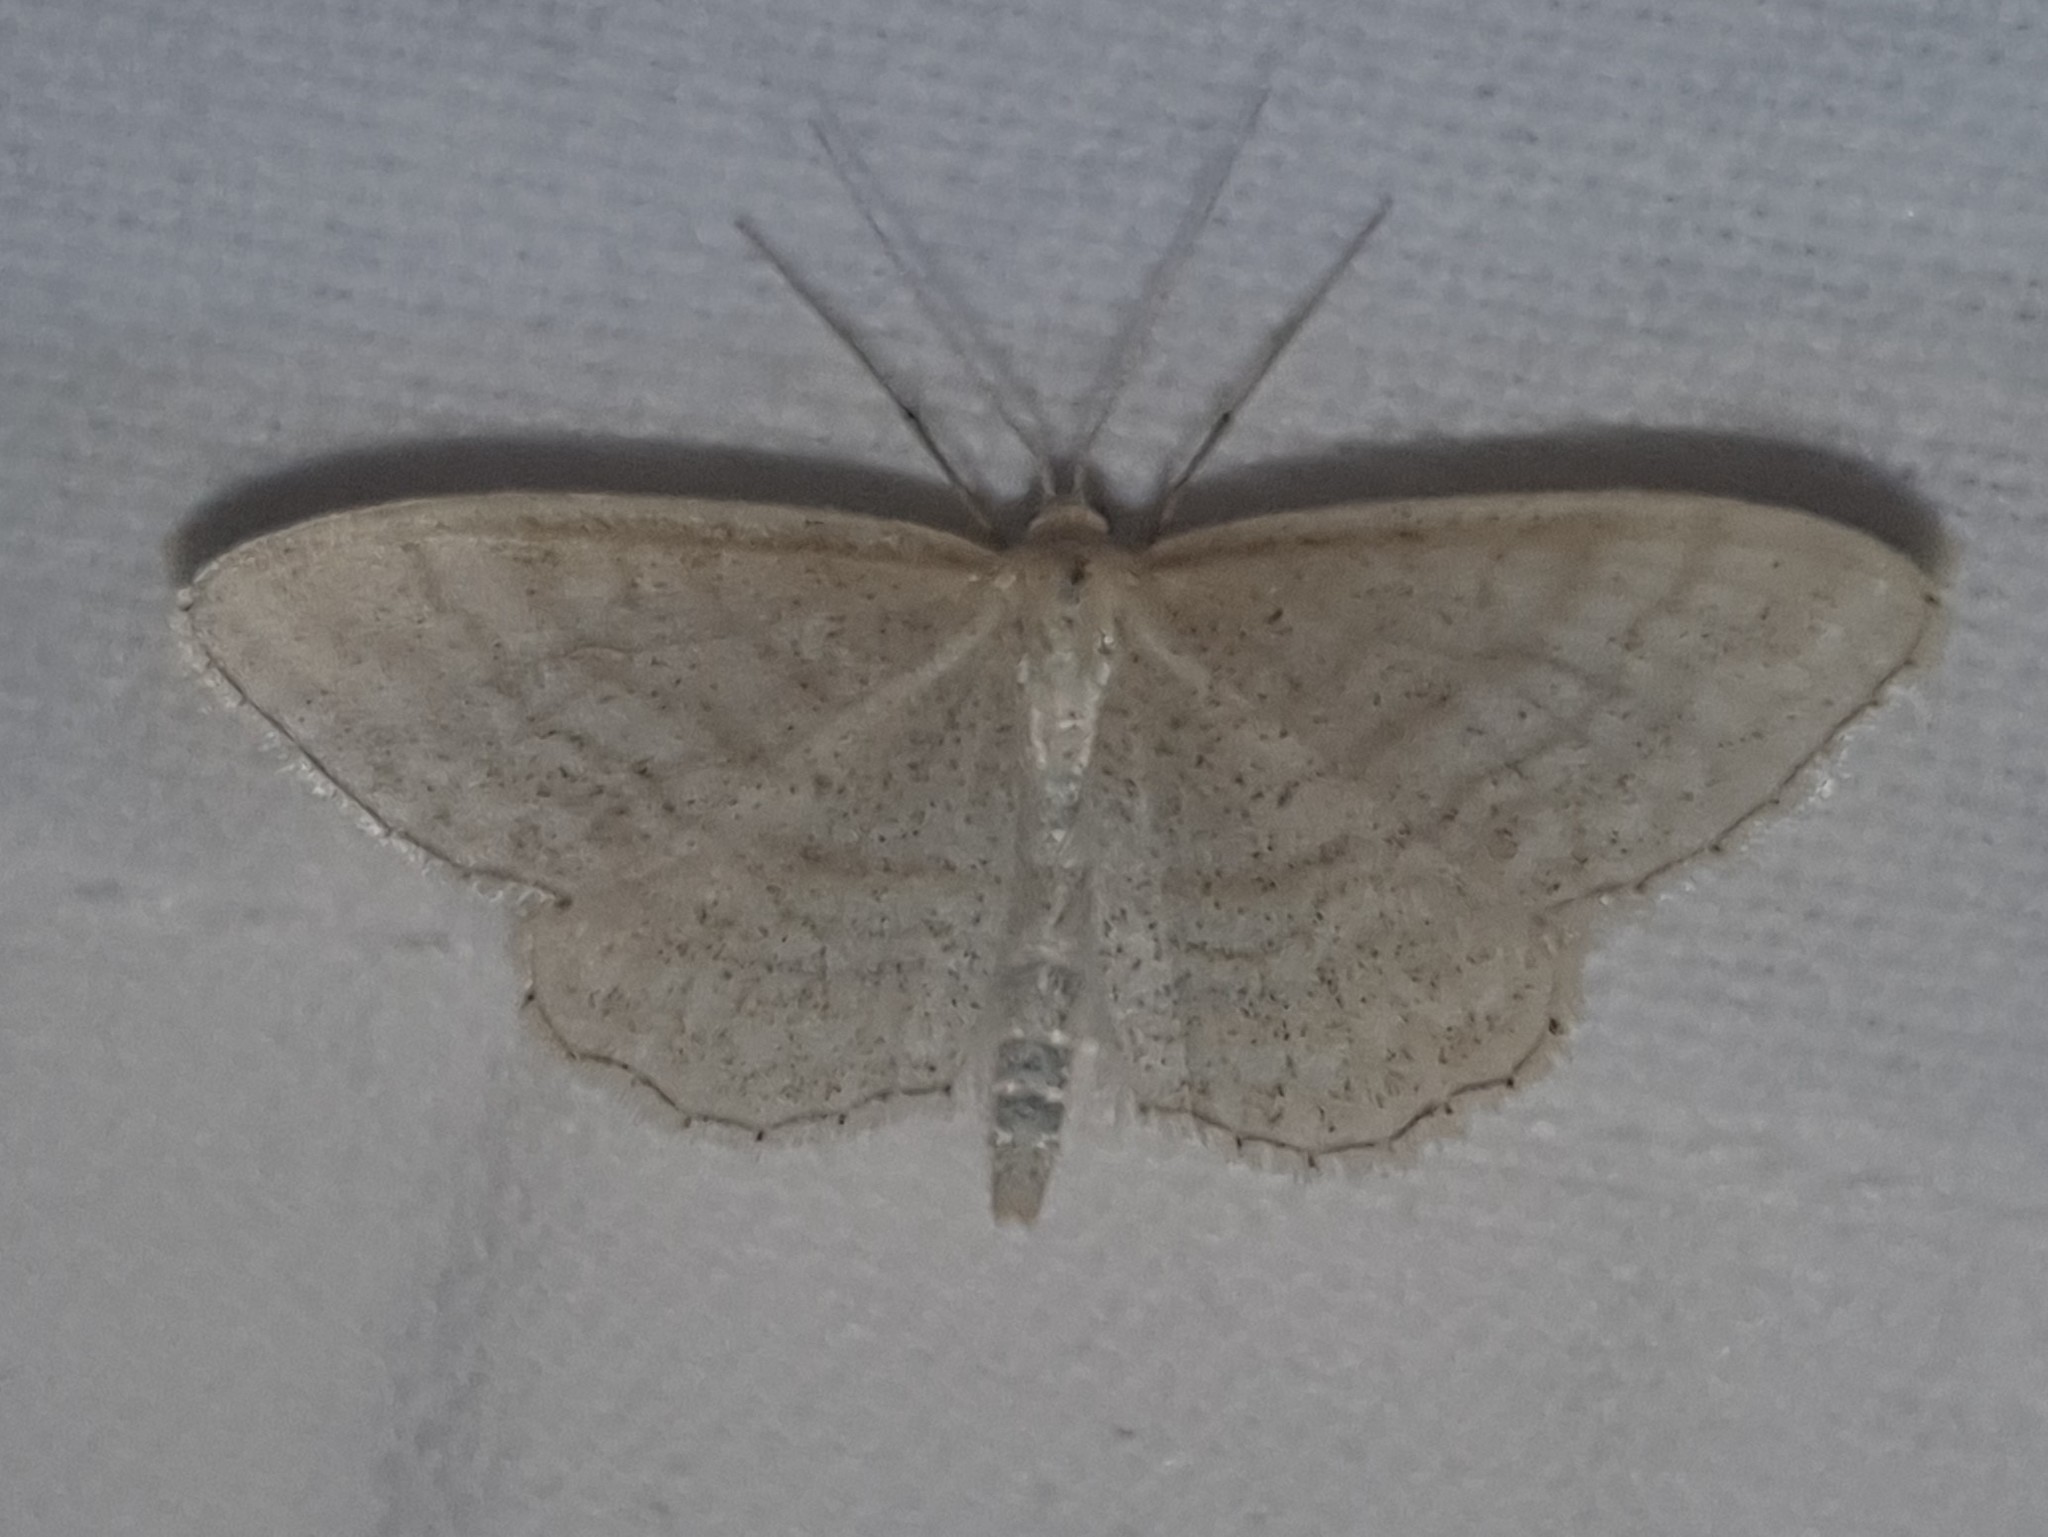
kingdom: Animalia
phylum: Arthropoda
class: Insecta
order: Lepidoptera
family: Geometridae
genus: Idaea
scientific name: Idaea antiquaria
